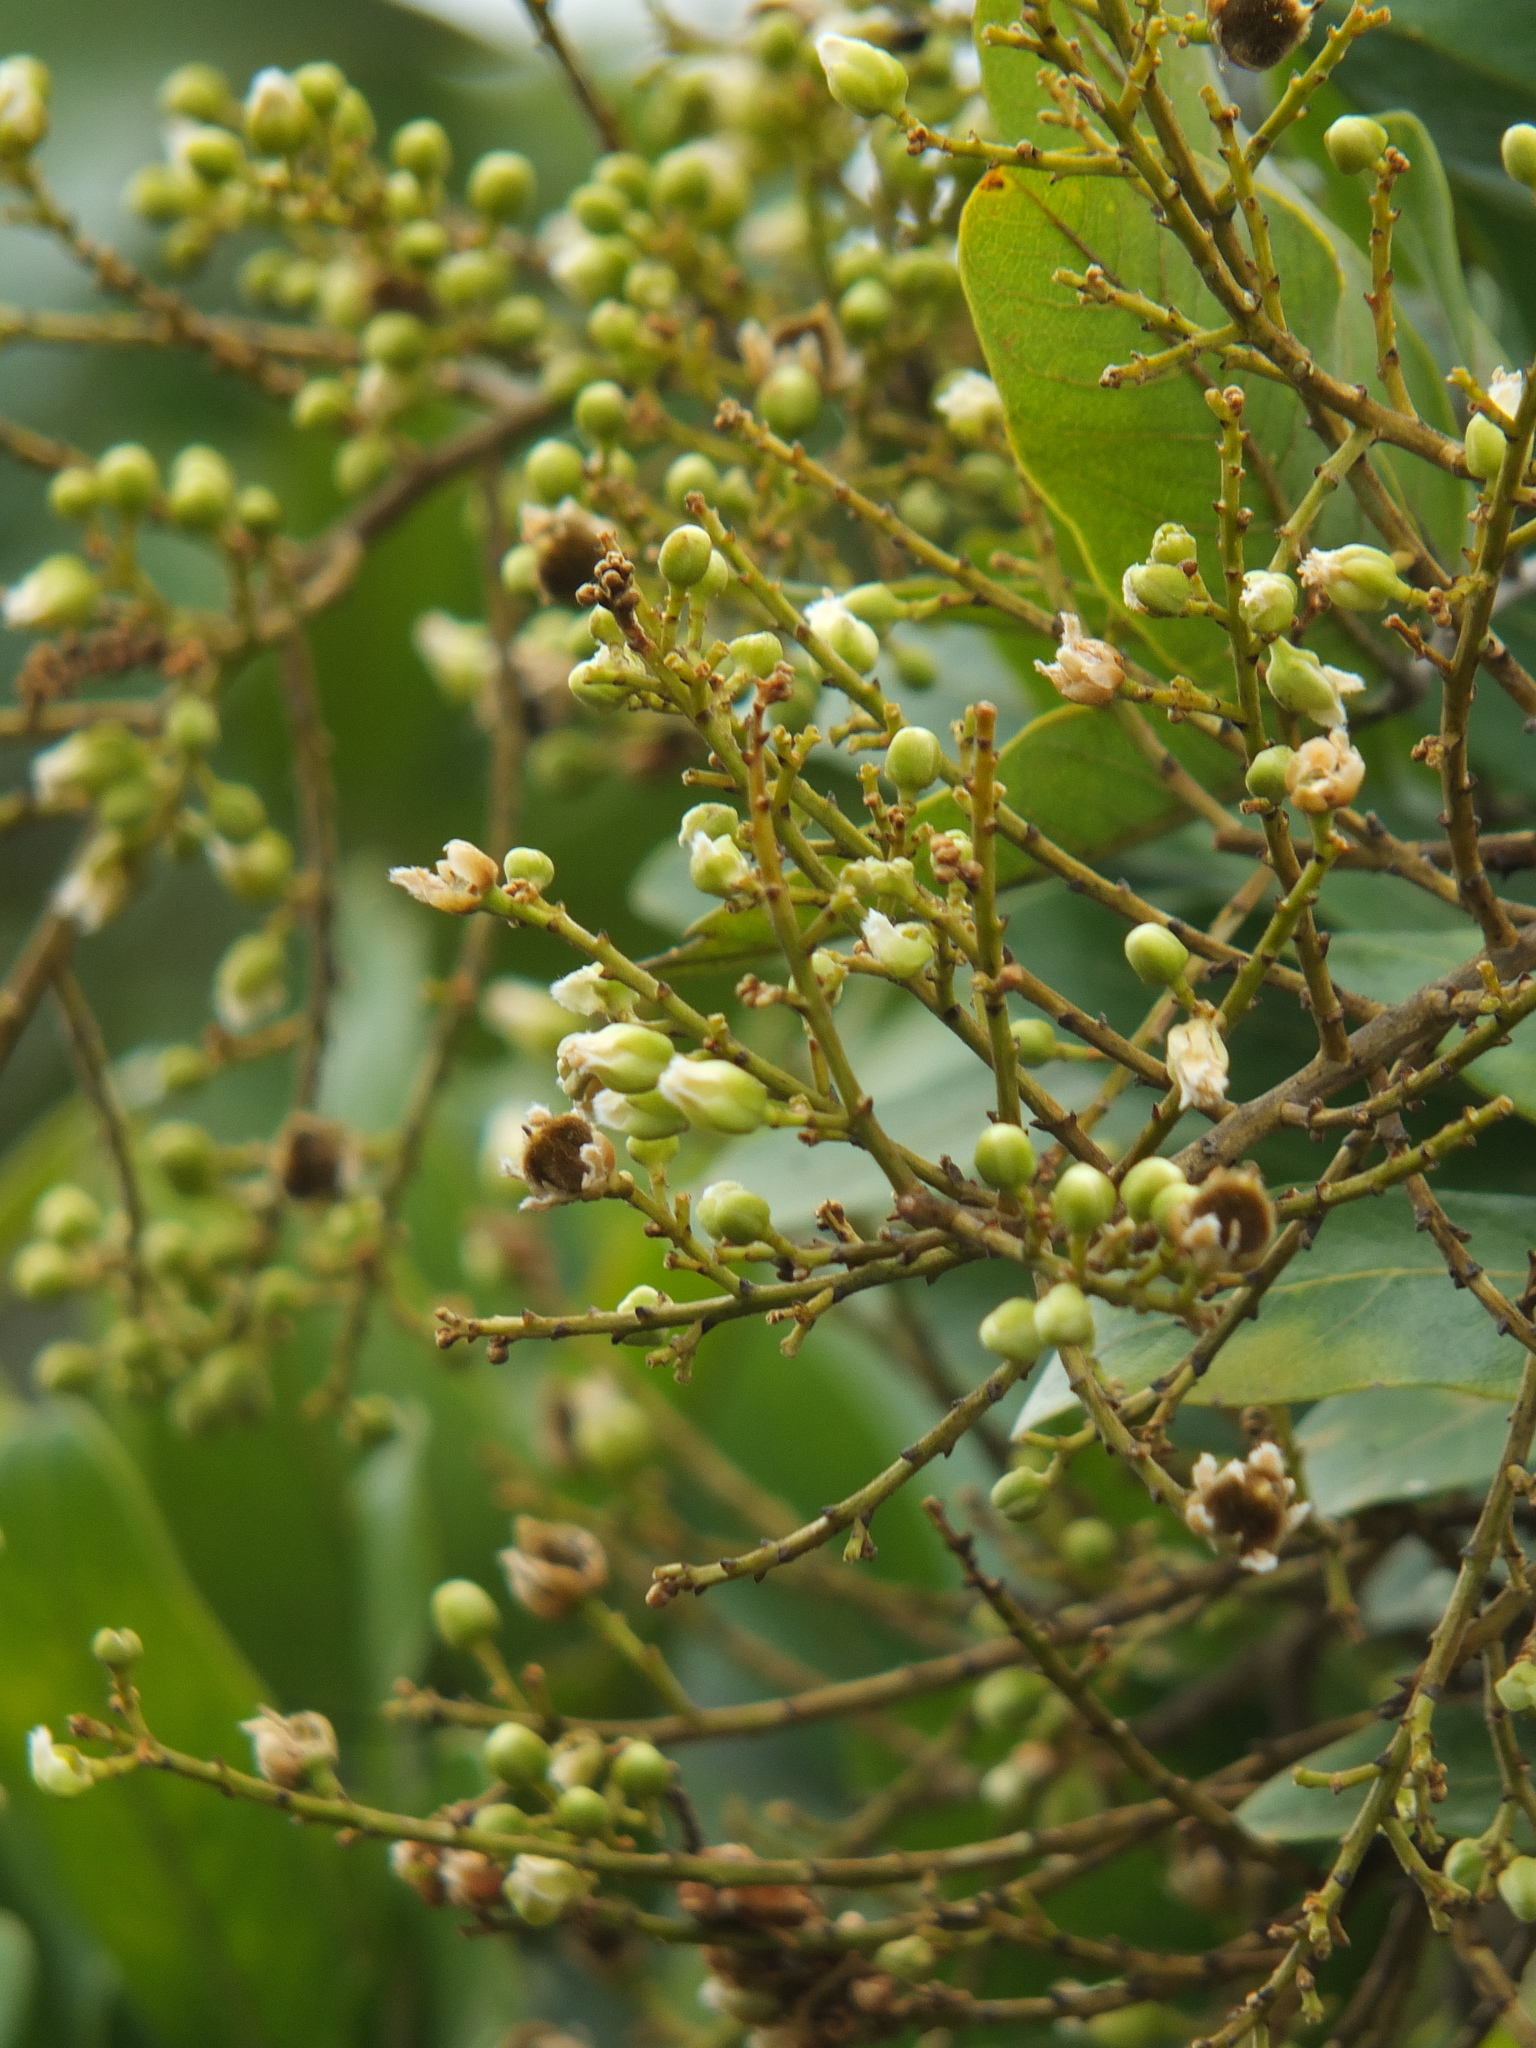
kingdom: Plantae
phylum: Tracheophyta
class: Magnoliopsida
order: Sapindales
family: Sapindaceae
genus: Sapindus
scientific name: Sapindus emarginatus
